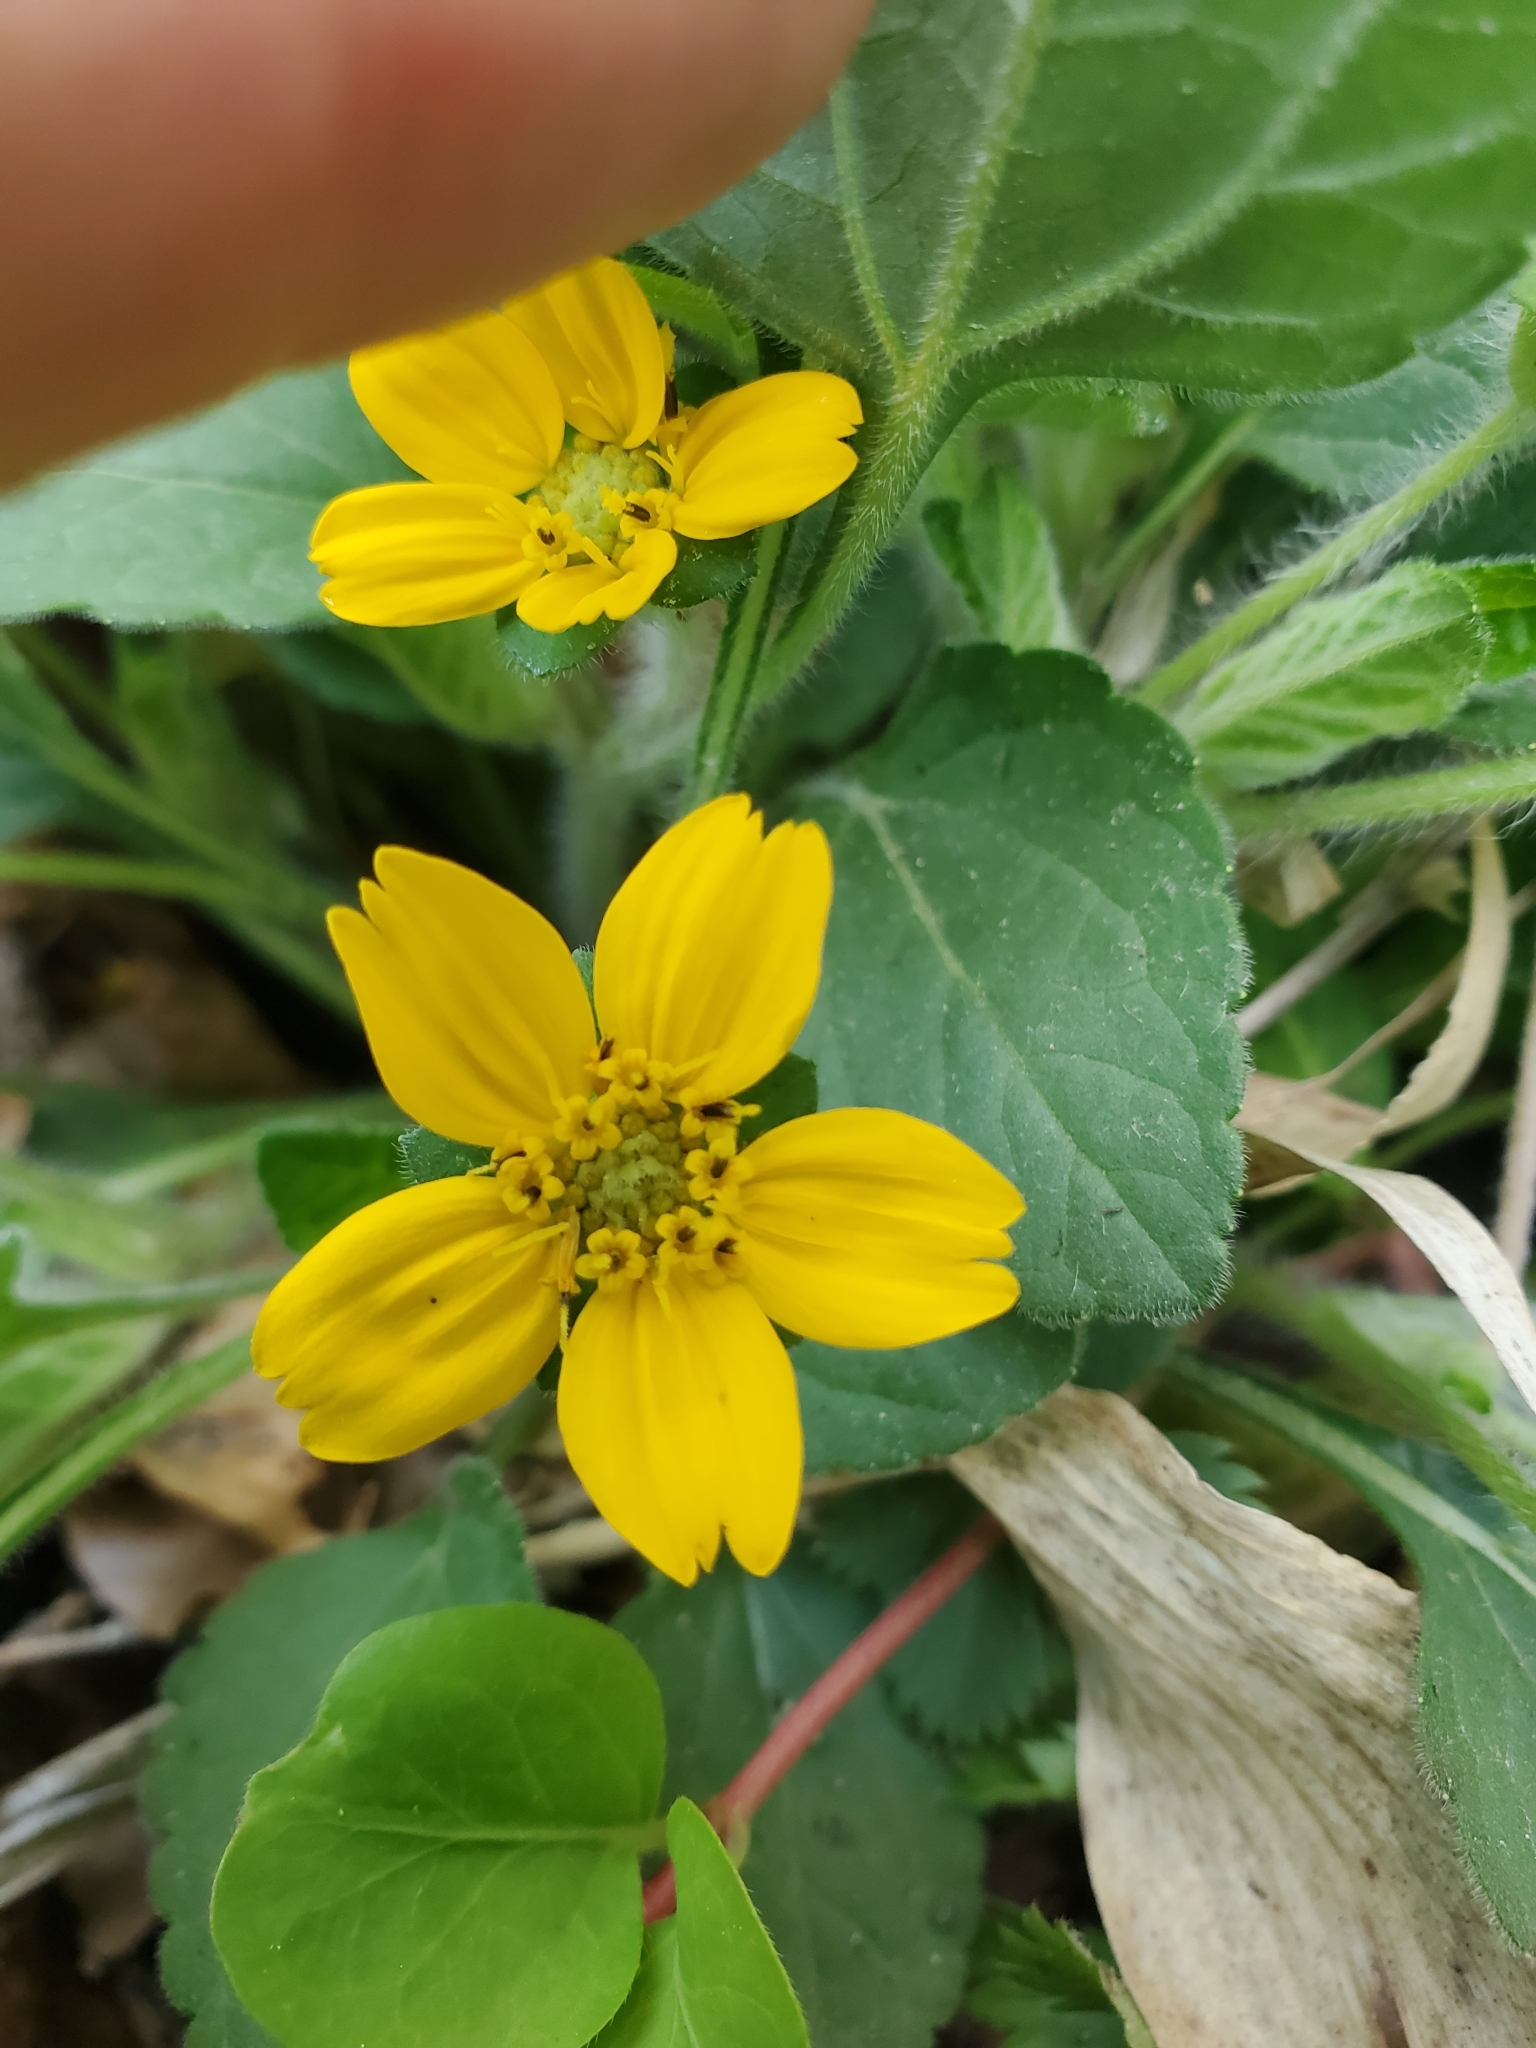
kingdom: Plantae
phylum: Tracheophyta
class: Magnoliopsida
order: Asterales
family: Asteraceae
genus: Chrysogonum
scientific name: Chrysogonum virginianum
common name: Golden-knee
